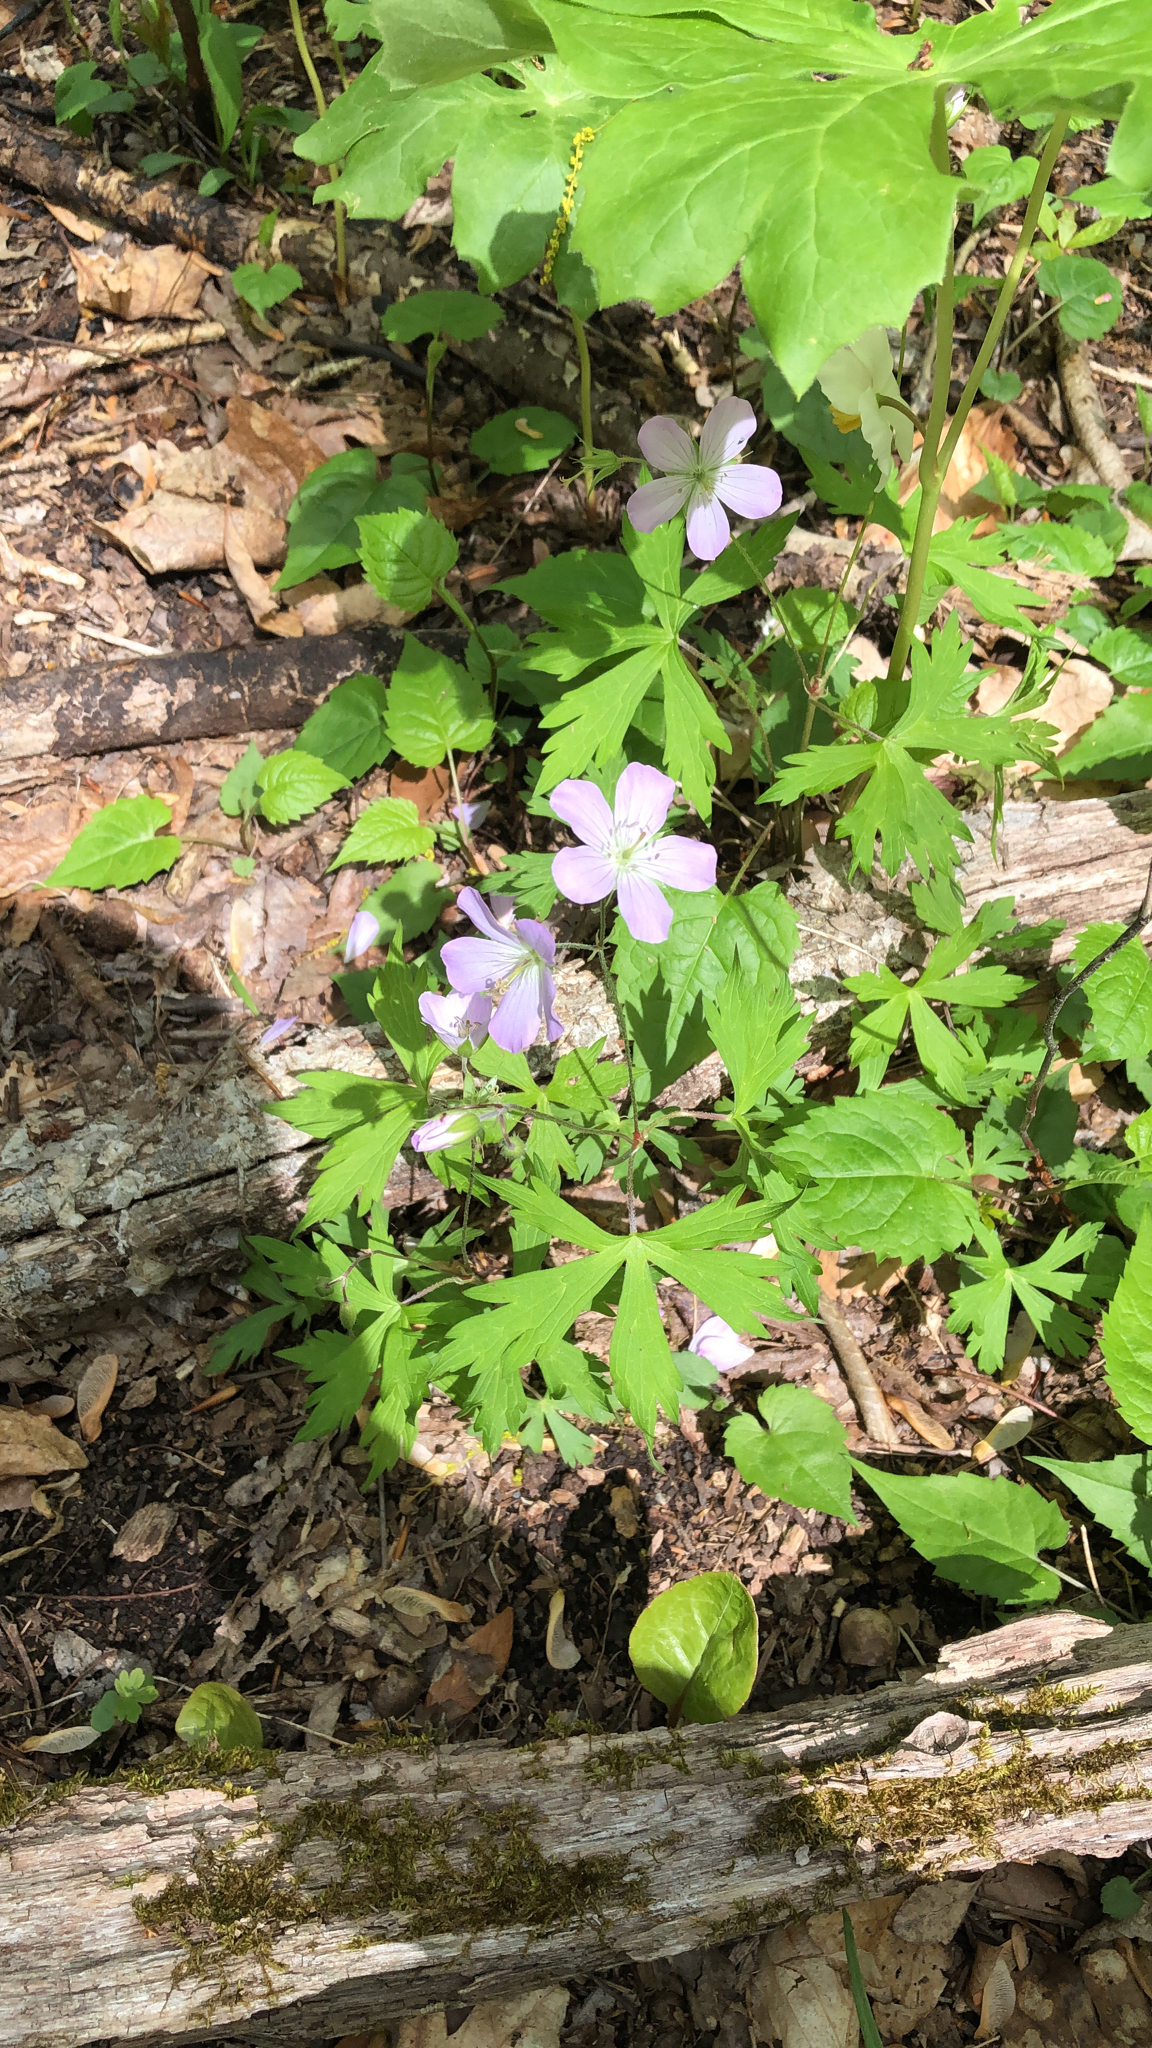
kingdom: Plantae
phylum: Tracheophyta
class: Magnoliopsida
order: Geraniales
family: Geraniaceae
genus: Geranium
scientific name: Geranium maculatum
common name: Spotted geranium
